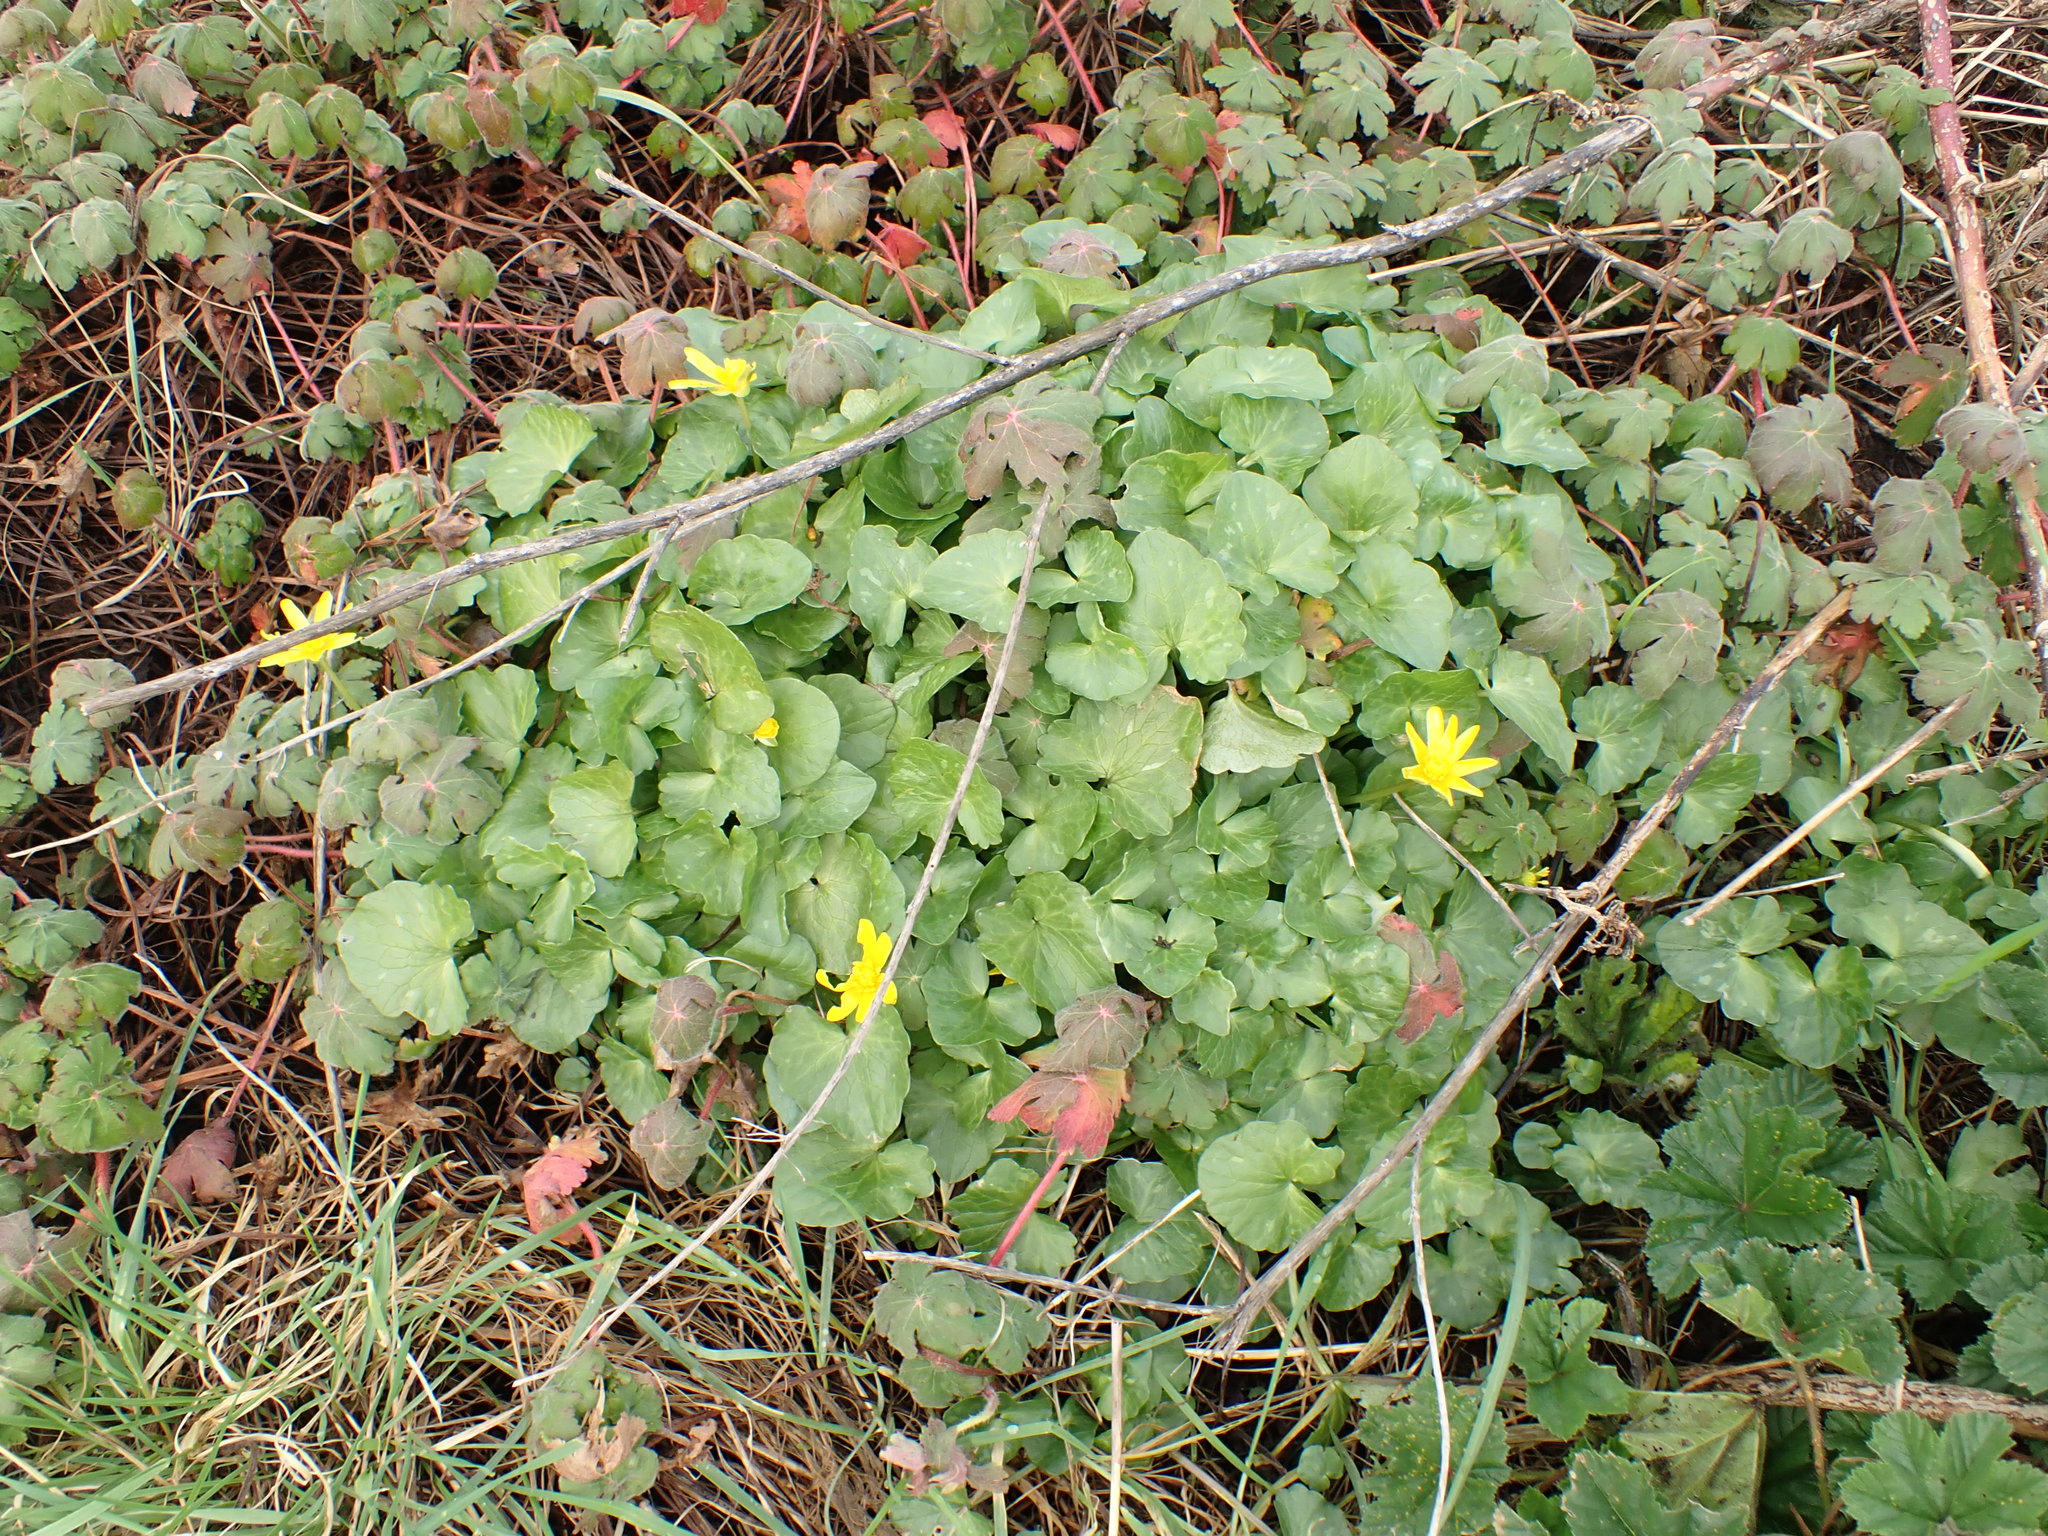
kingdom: Plantae
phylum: Tracheophyta
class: Magnoliopsida
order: Ranunculales
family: Ranunculaceae
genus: Ficaria
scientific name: Ficaria verna
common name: Lesser celandine
